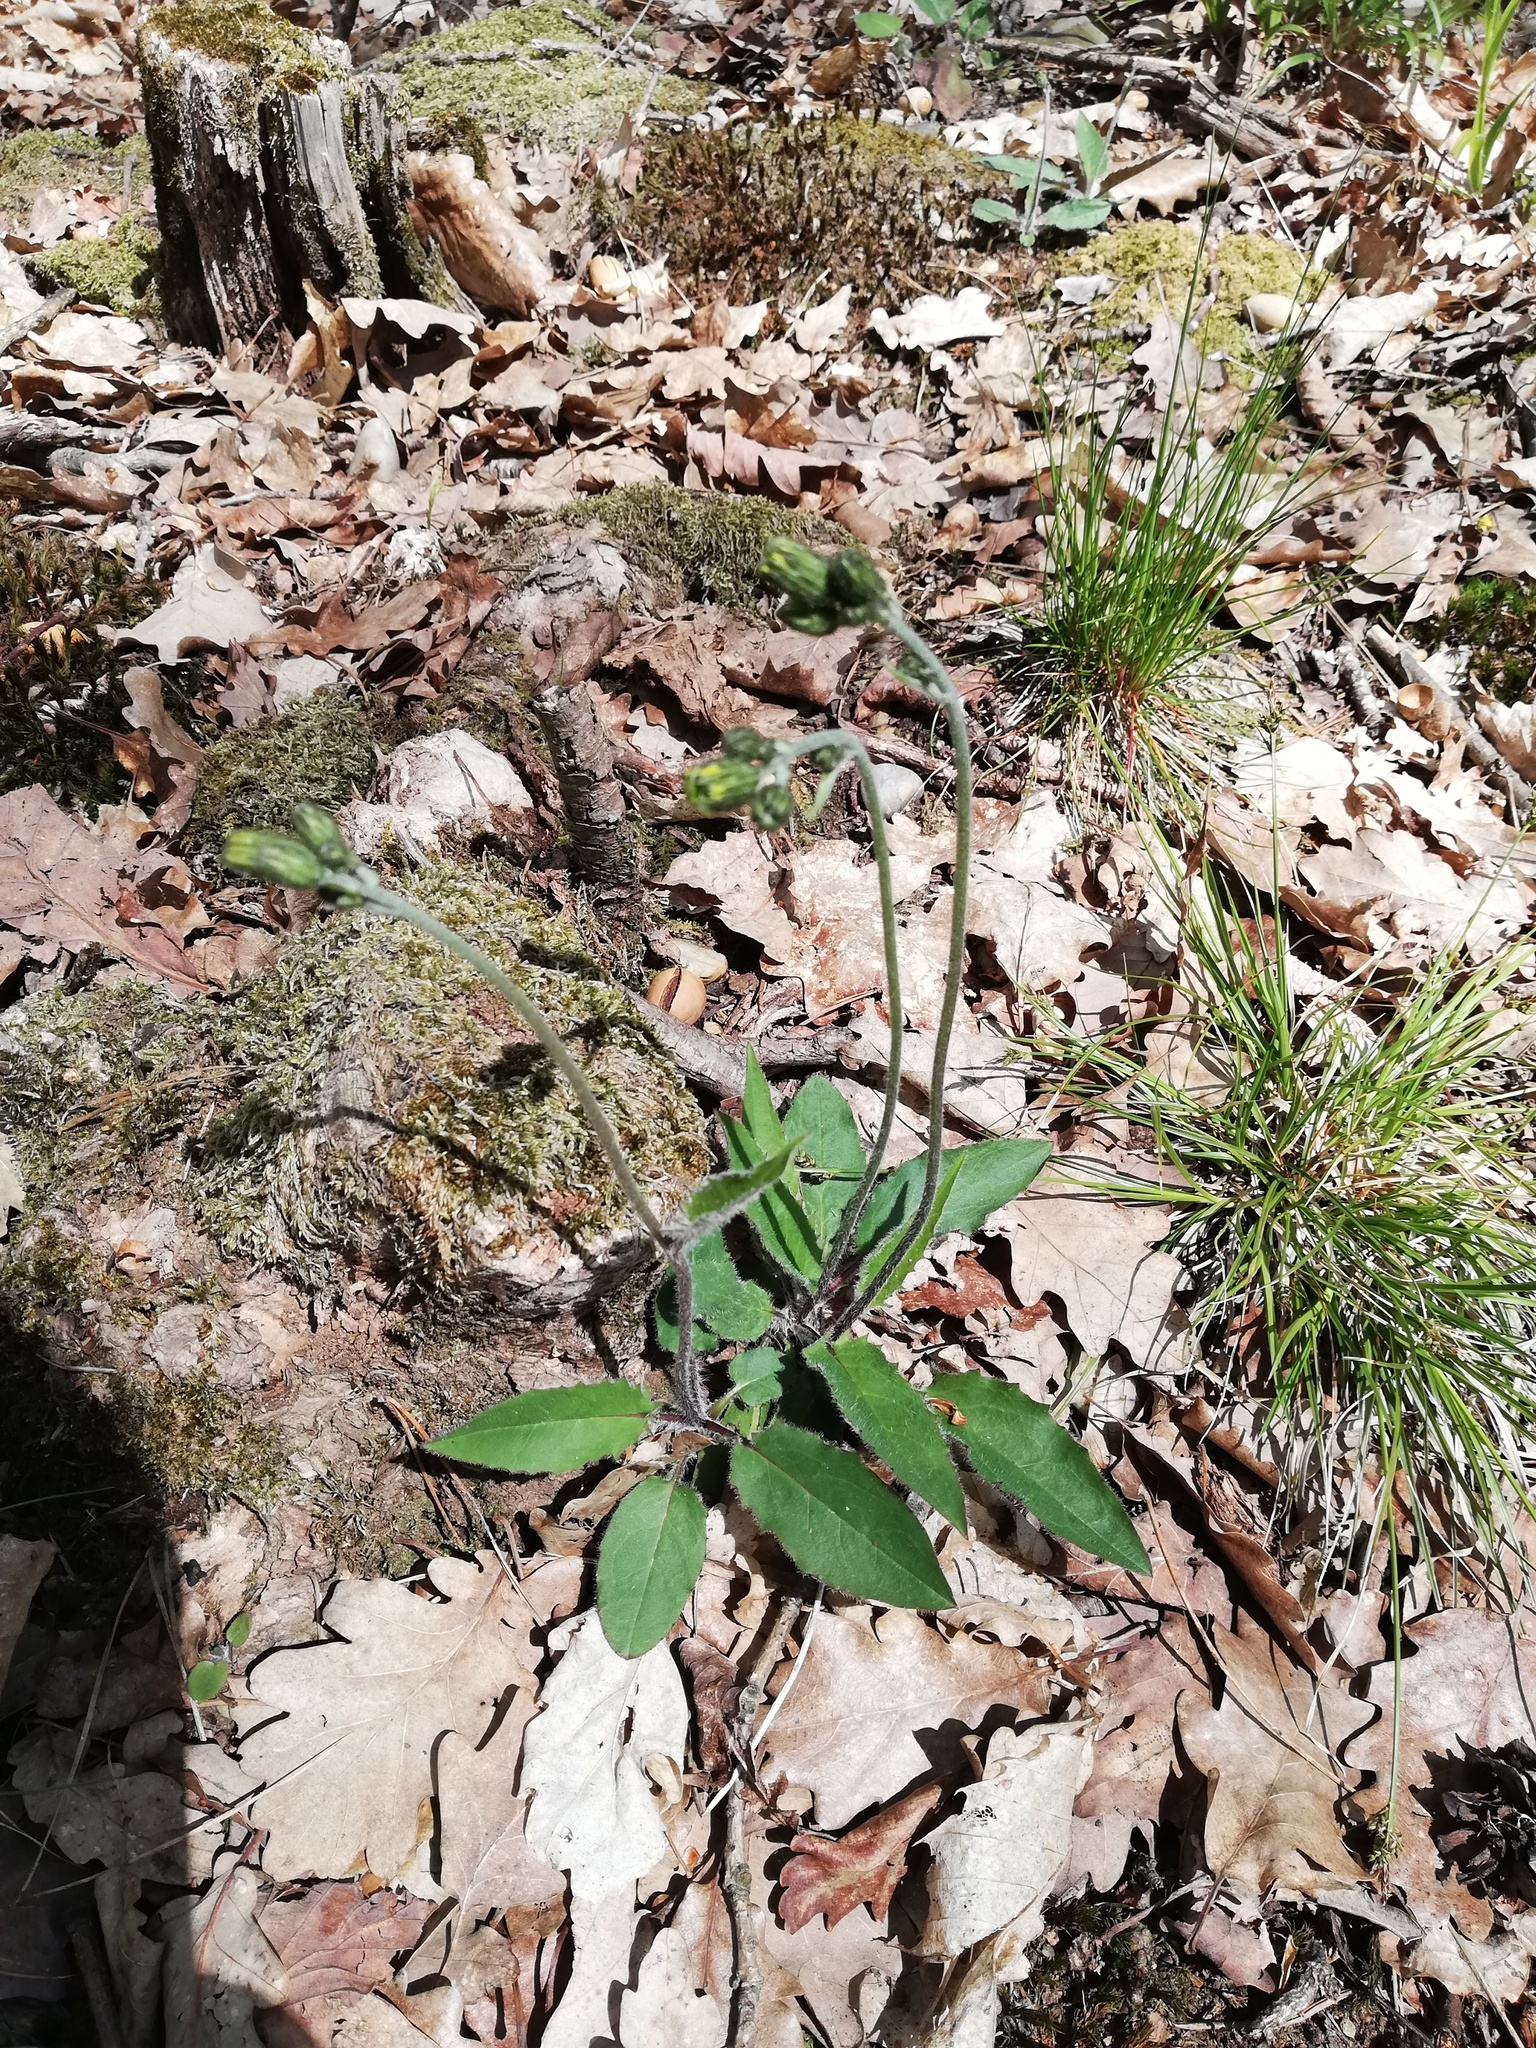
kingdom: Plantae
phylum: Tracheophyta
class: Magnoliopsida
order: Asterales
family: Asteraceae
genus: Hieracium
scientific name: Hieracium murorum
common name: Wall hawkweed
